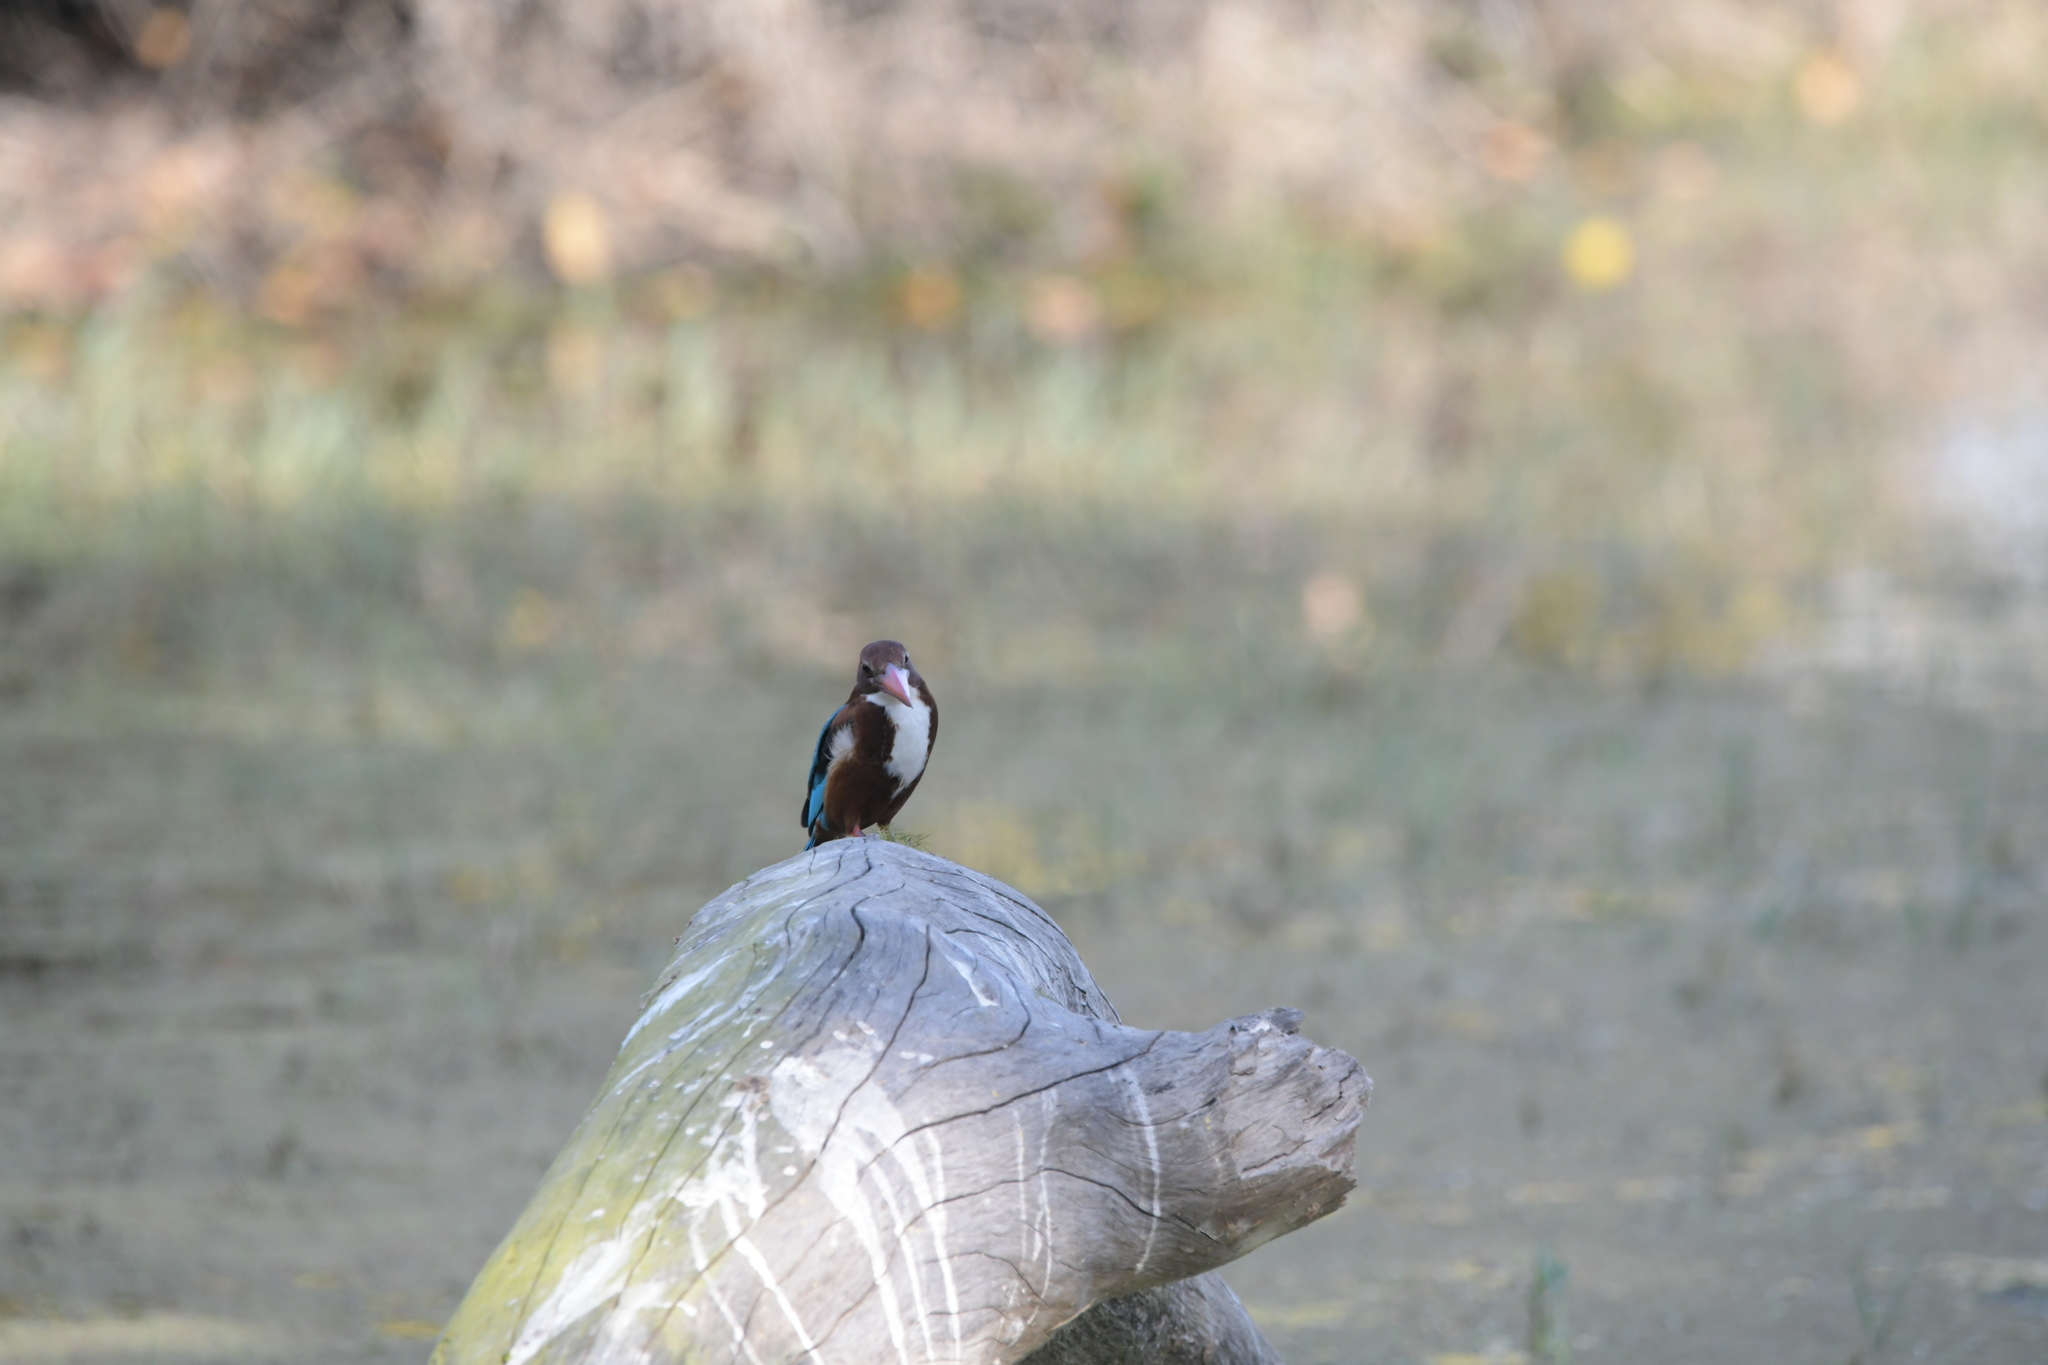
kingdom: Animalia
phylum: Chordata
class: Aves
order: Coraciiformes
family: Alcedinidae
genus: Halcyon
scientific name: Halcyon smyrnensis
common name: White-throated kingfisher
